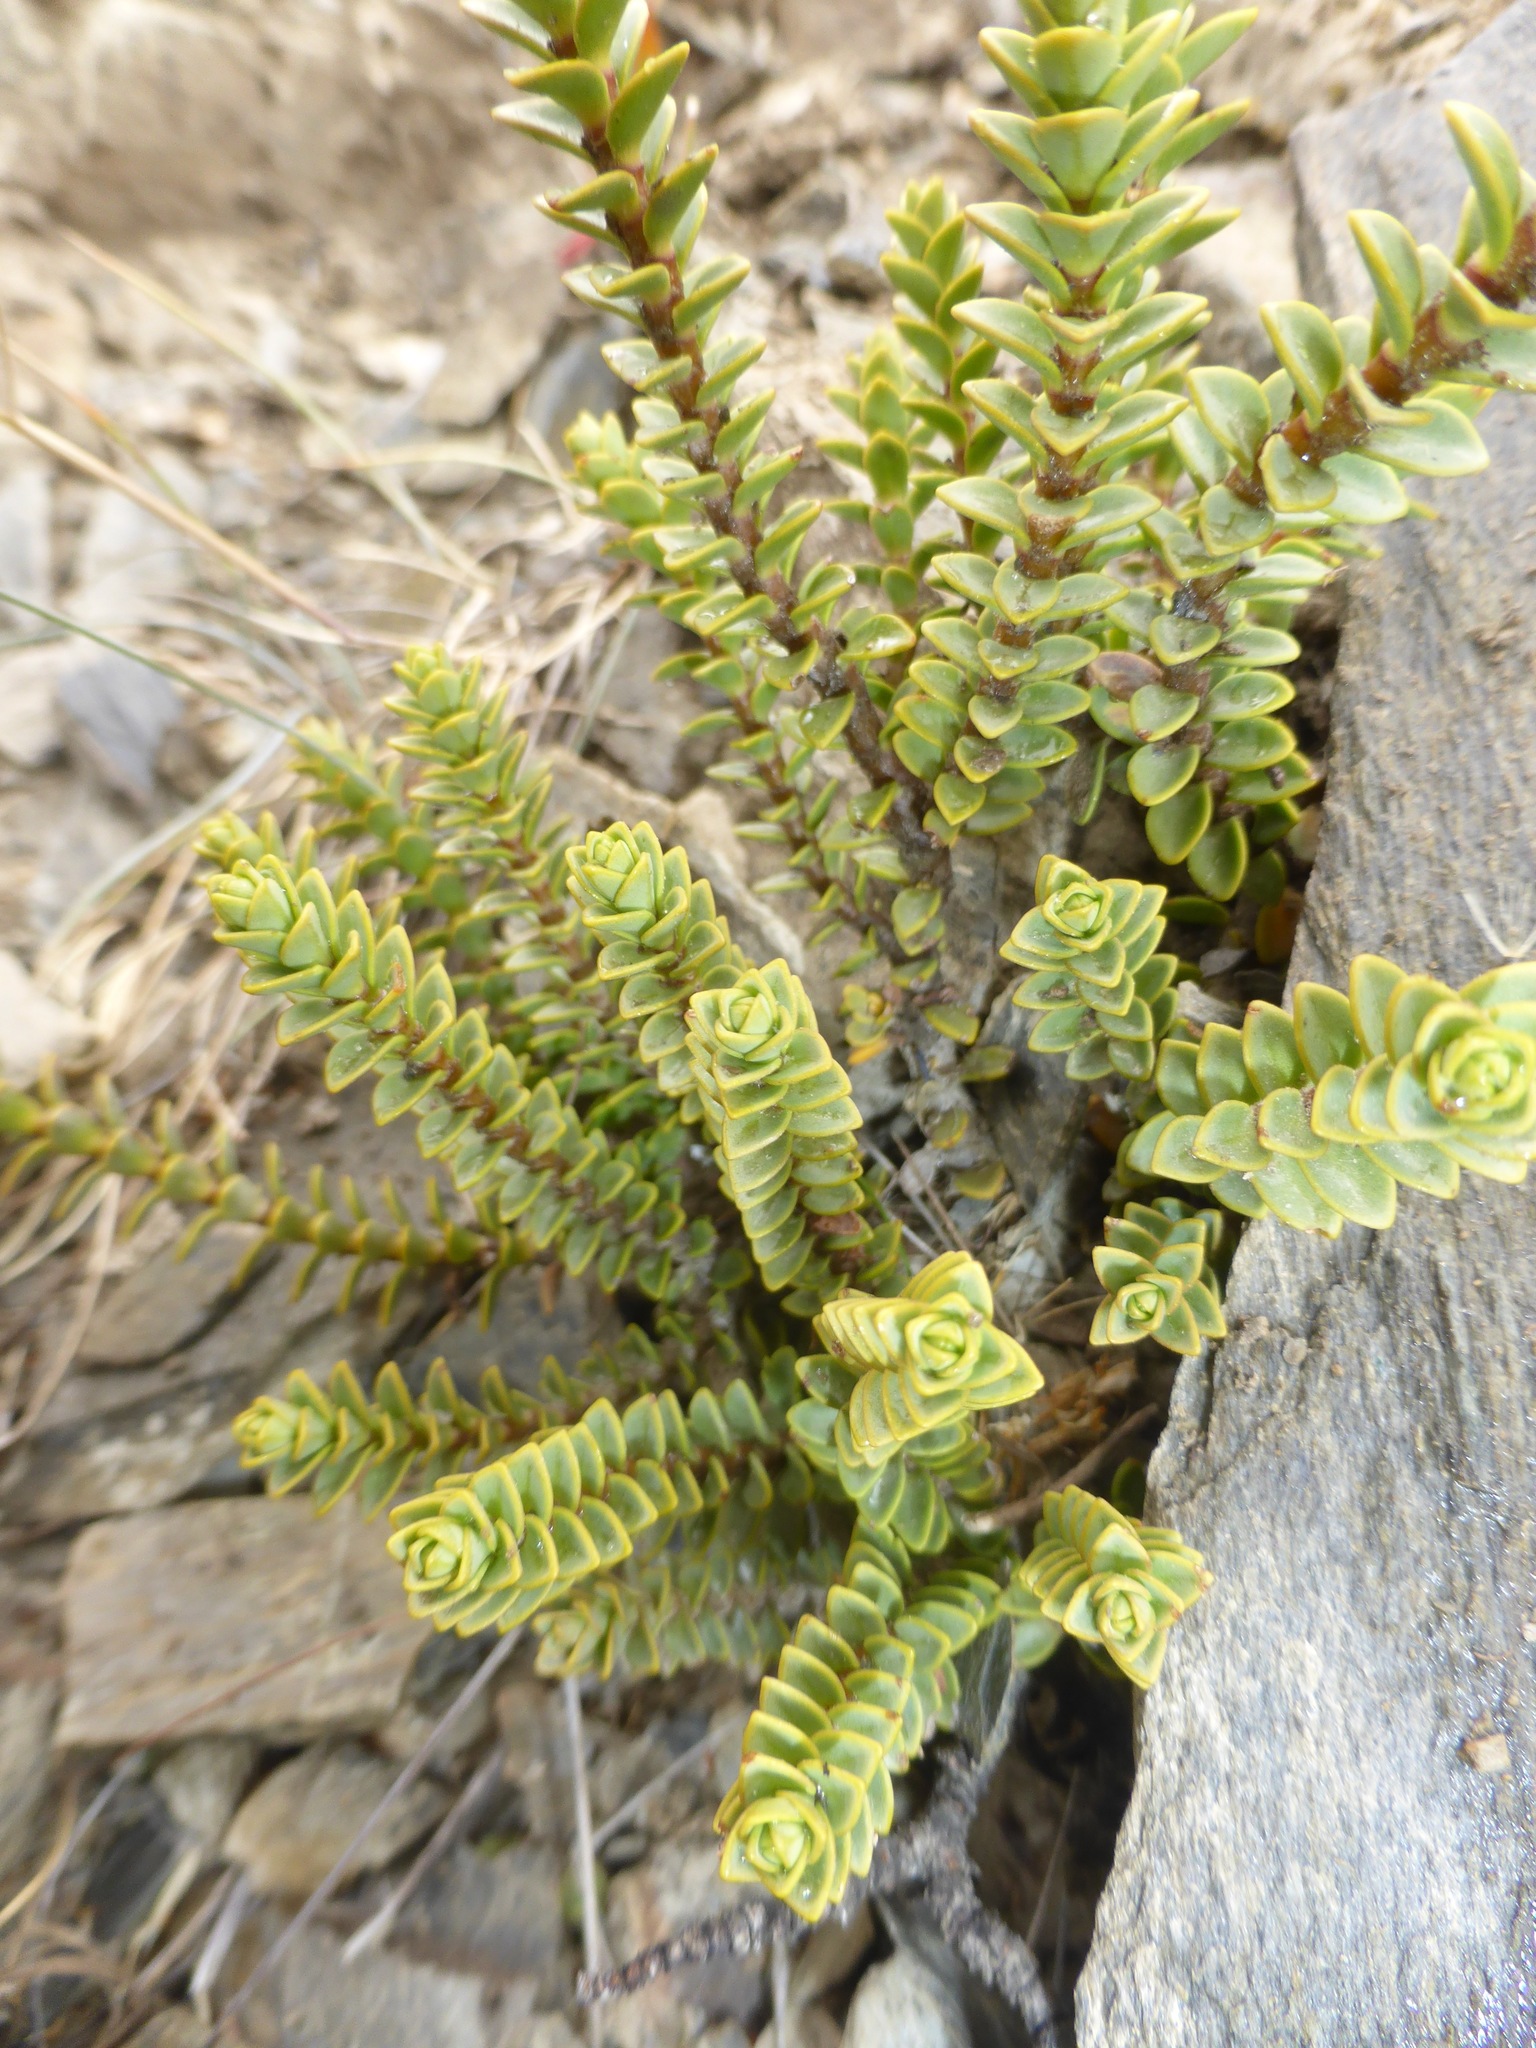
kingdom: Plantae
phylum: Tracheophyta
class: Magnoliopsida
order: Lamiales
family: Plantaginaceae
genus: Veronica
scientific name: Veronica buchananii
